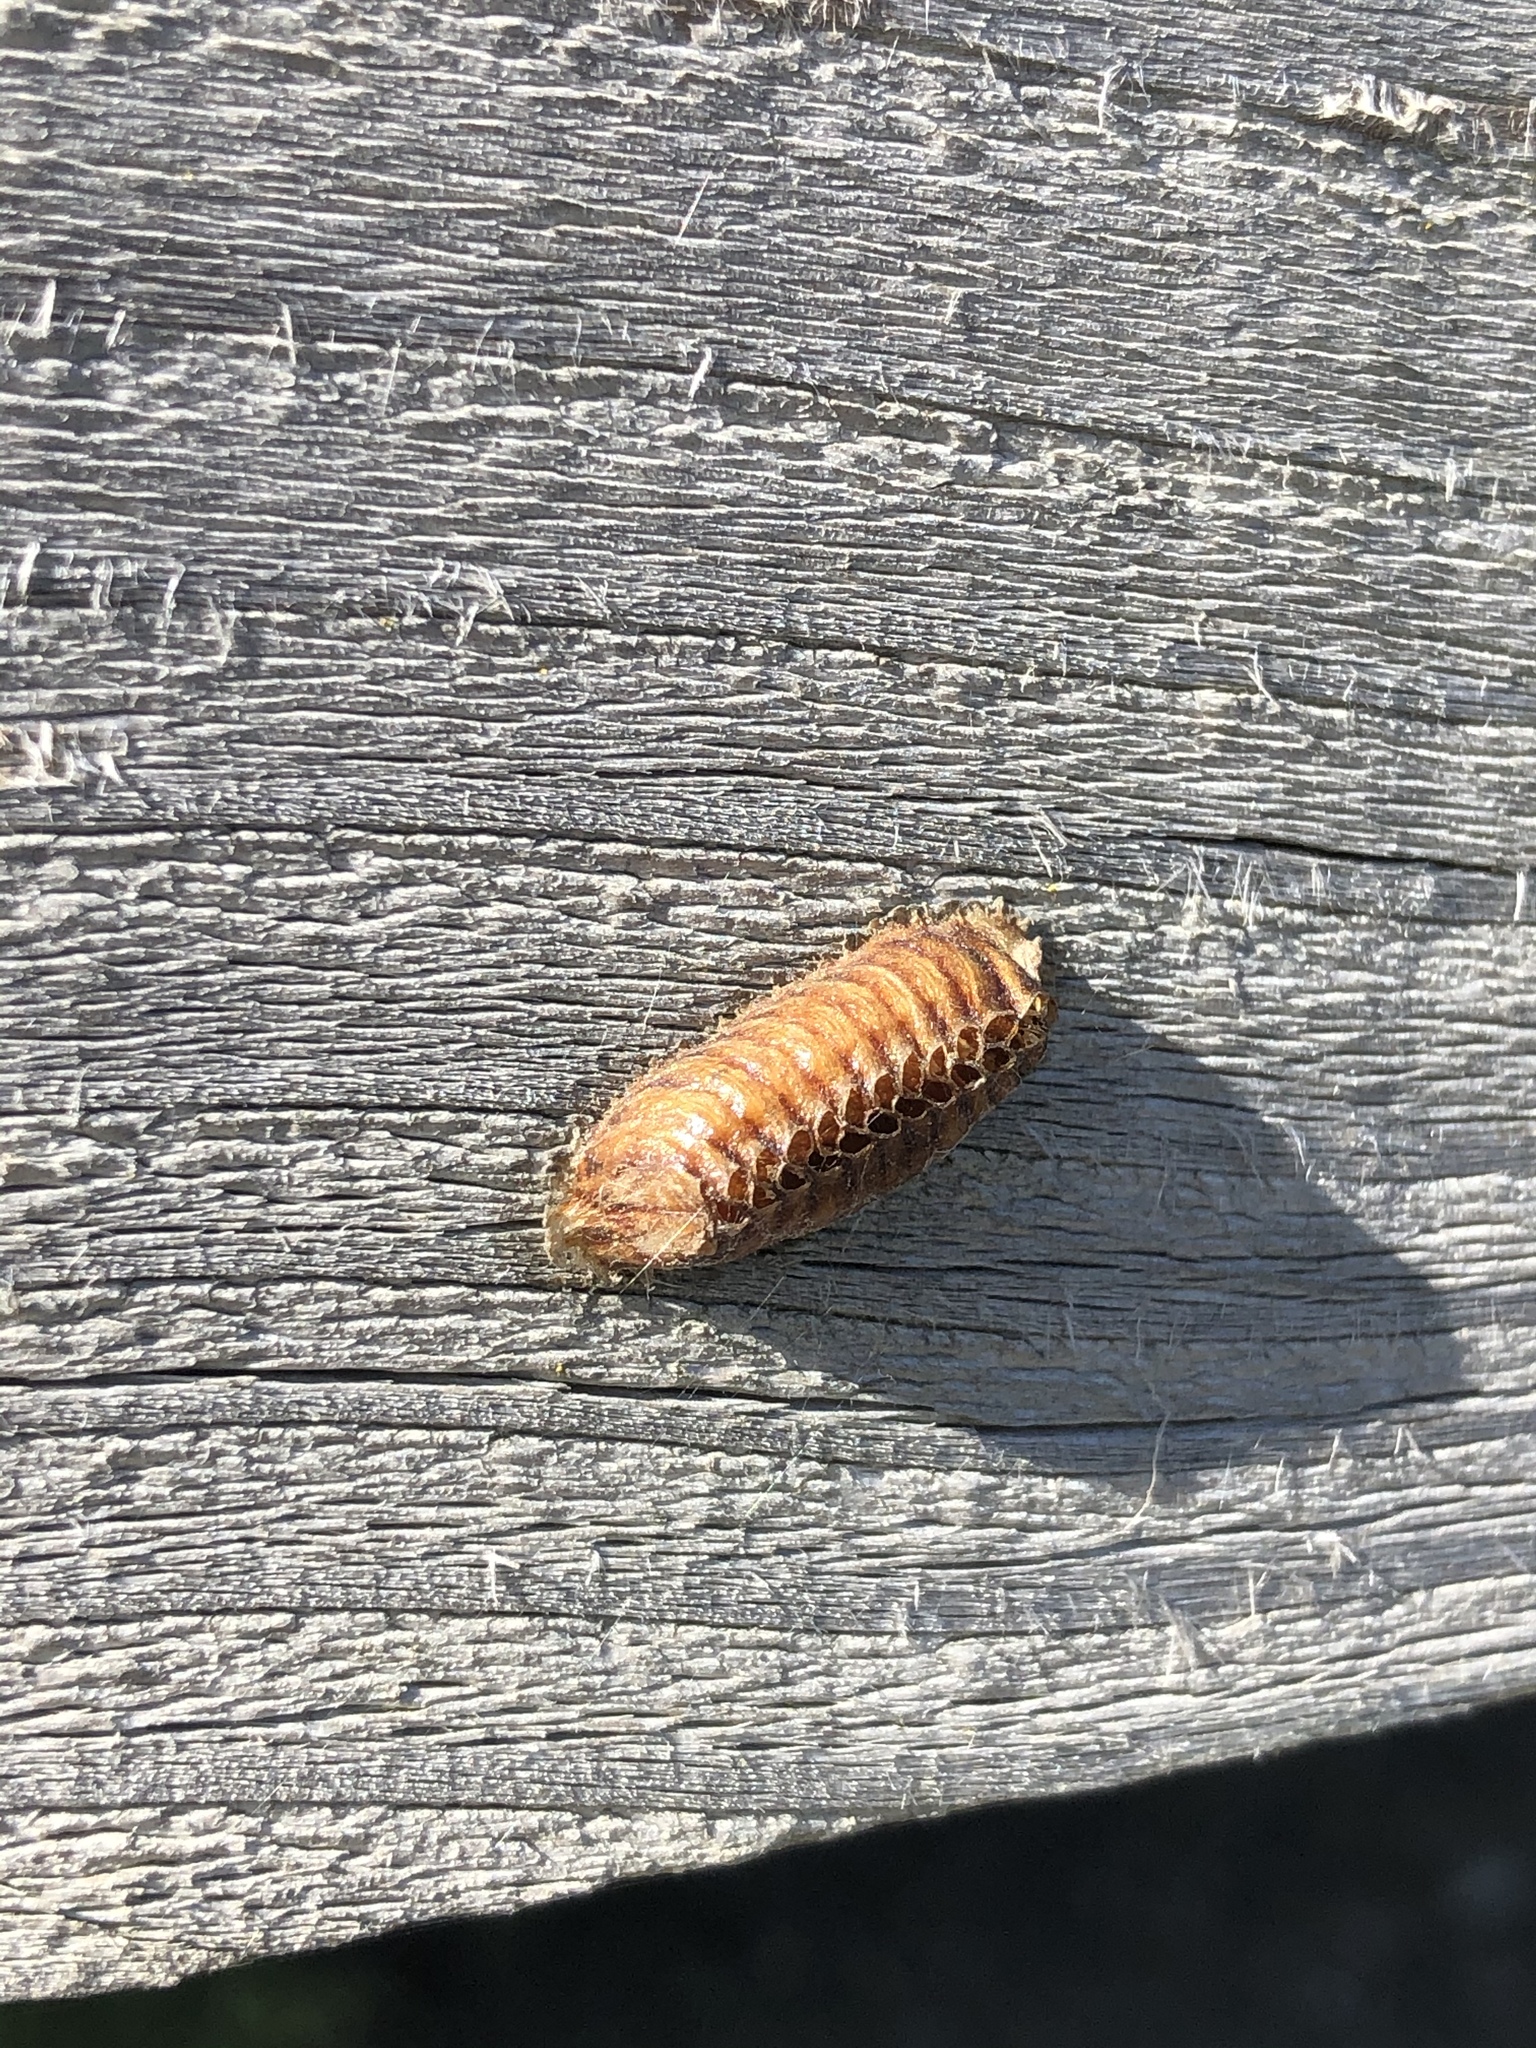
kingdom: Animalia
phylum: Arthropoda
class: Insecta
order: Mantodea
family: Mantidae
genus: Orthodera
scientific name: Orthodera novaezealandiae
